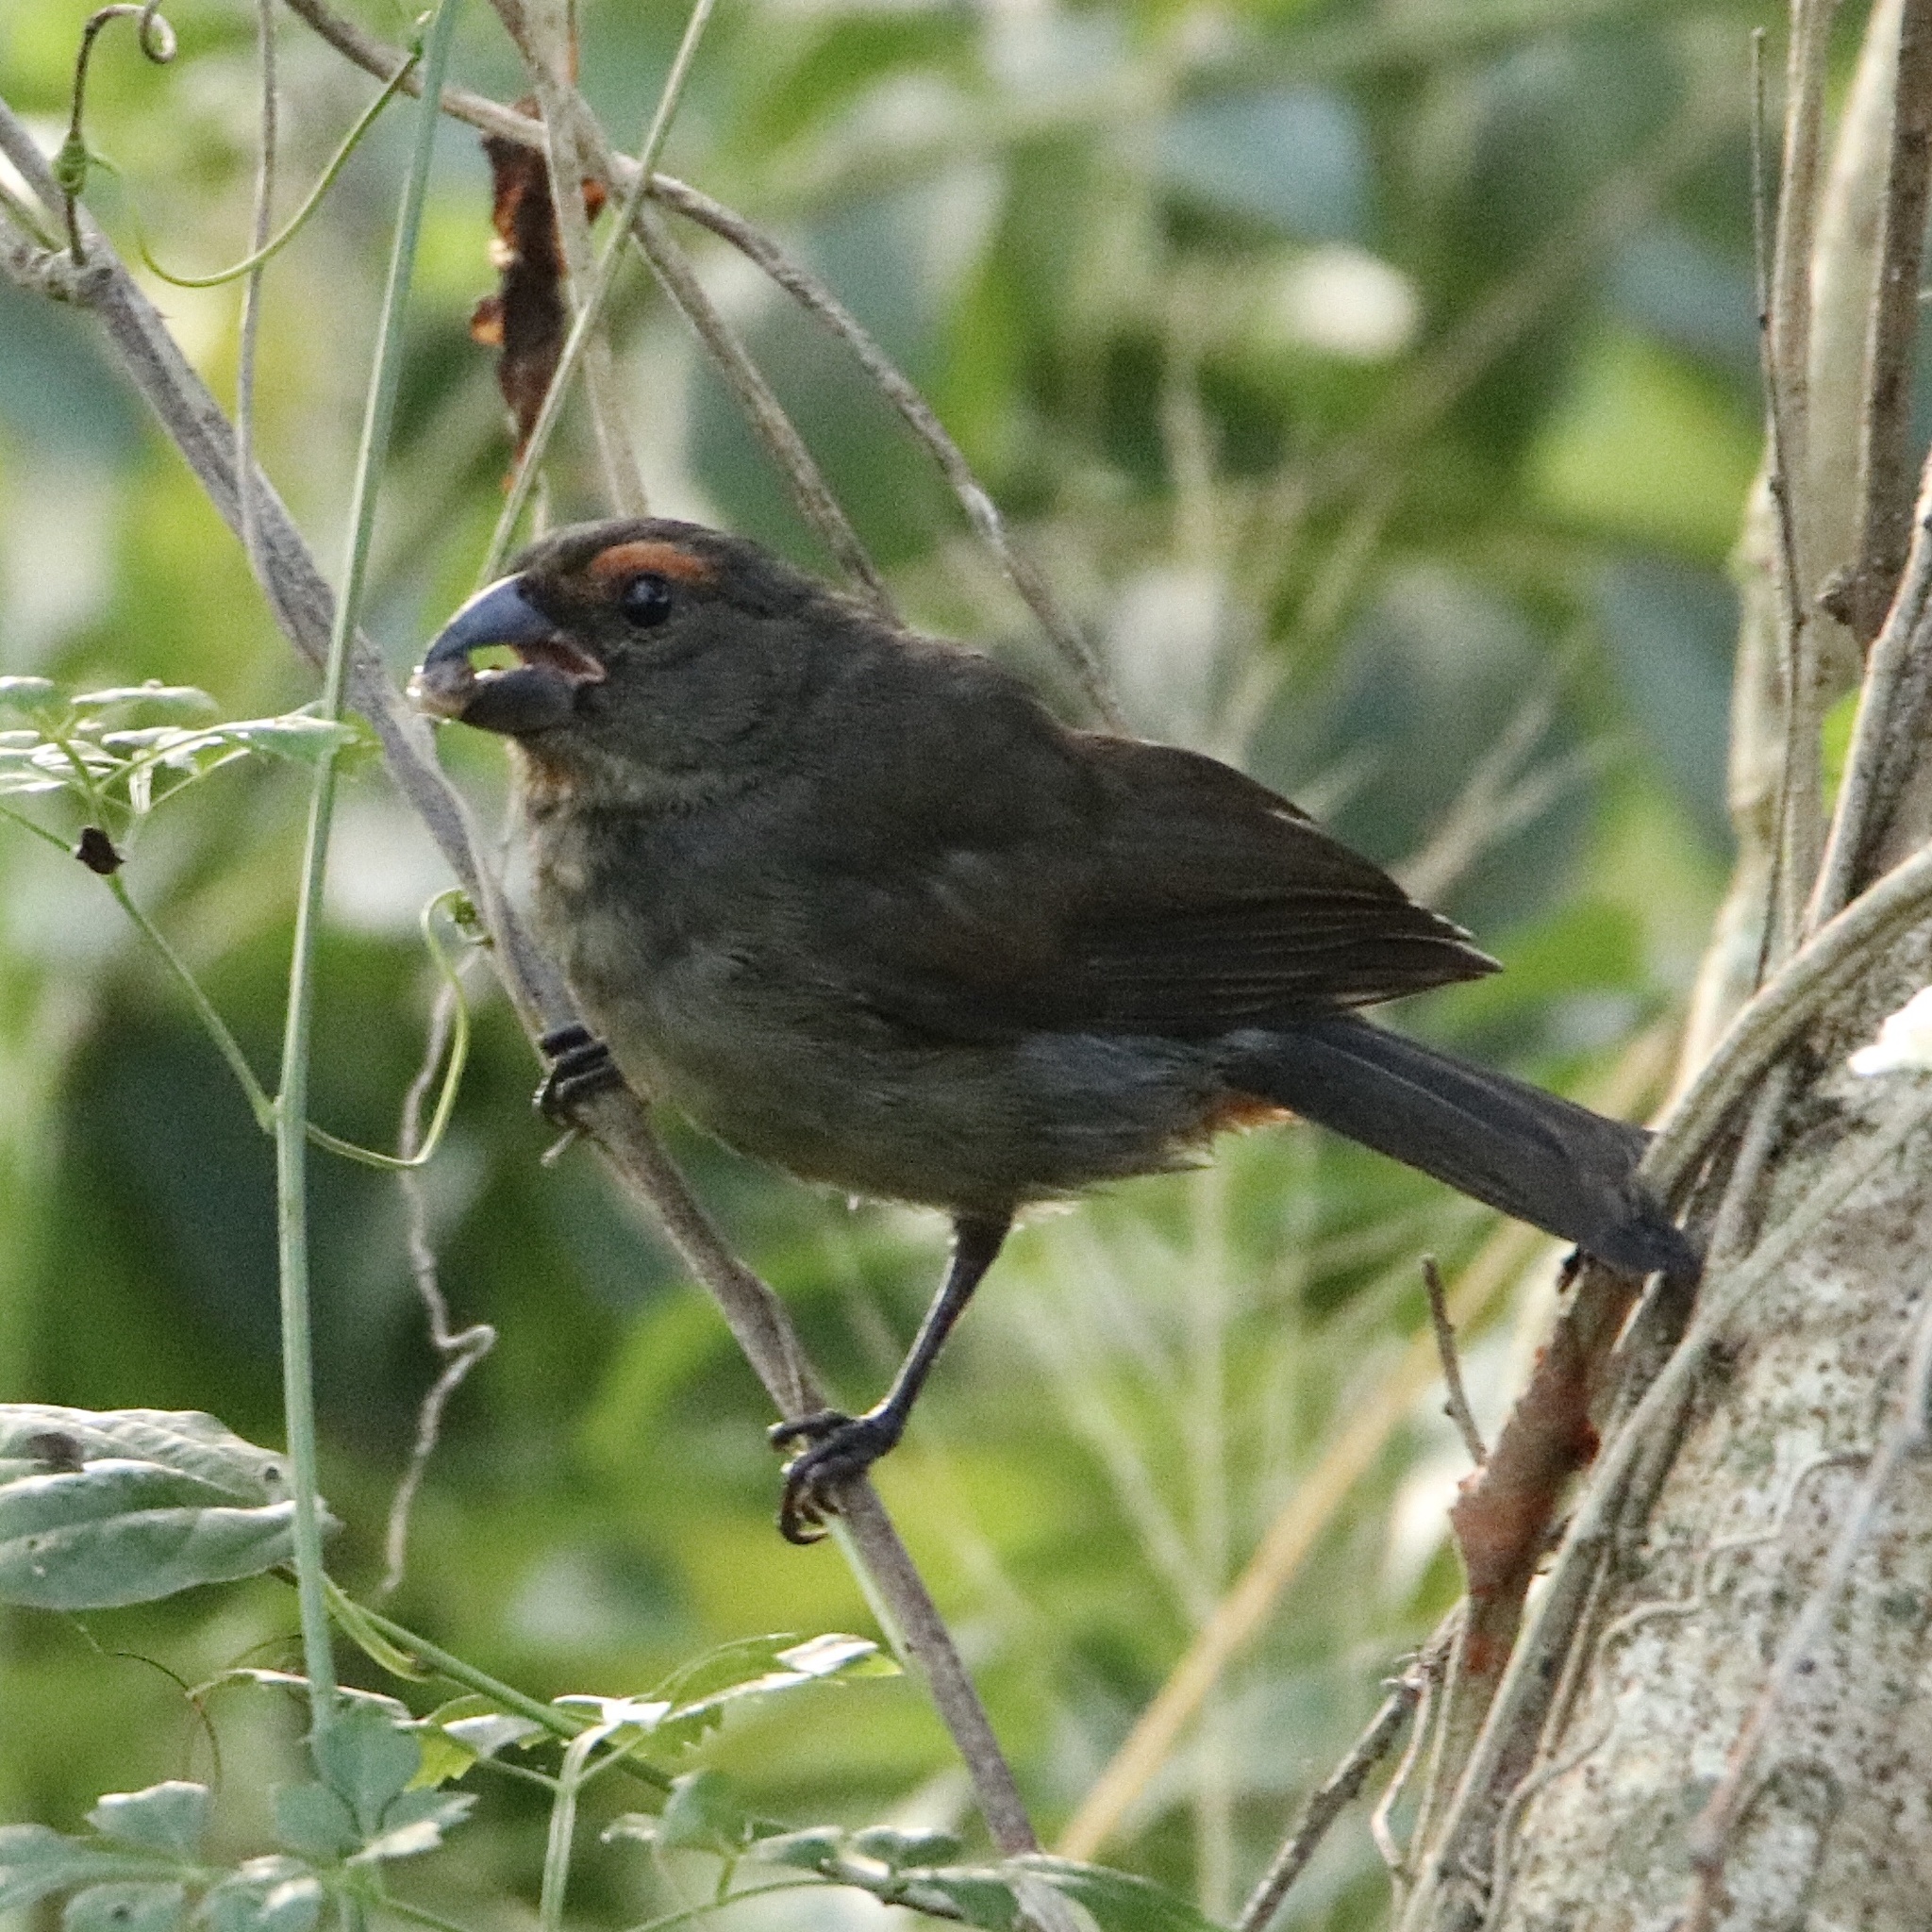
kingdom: Animalia
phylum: Chordata
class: Aves
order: Passeriformes
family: Thraupidae
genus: Melopyrrha
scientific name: Melopyrrha violacea
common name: Greater antillean bullfinch
